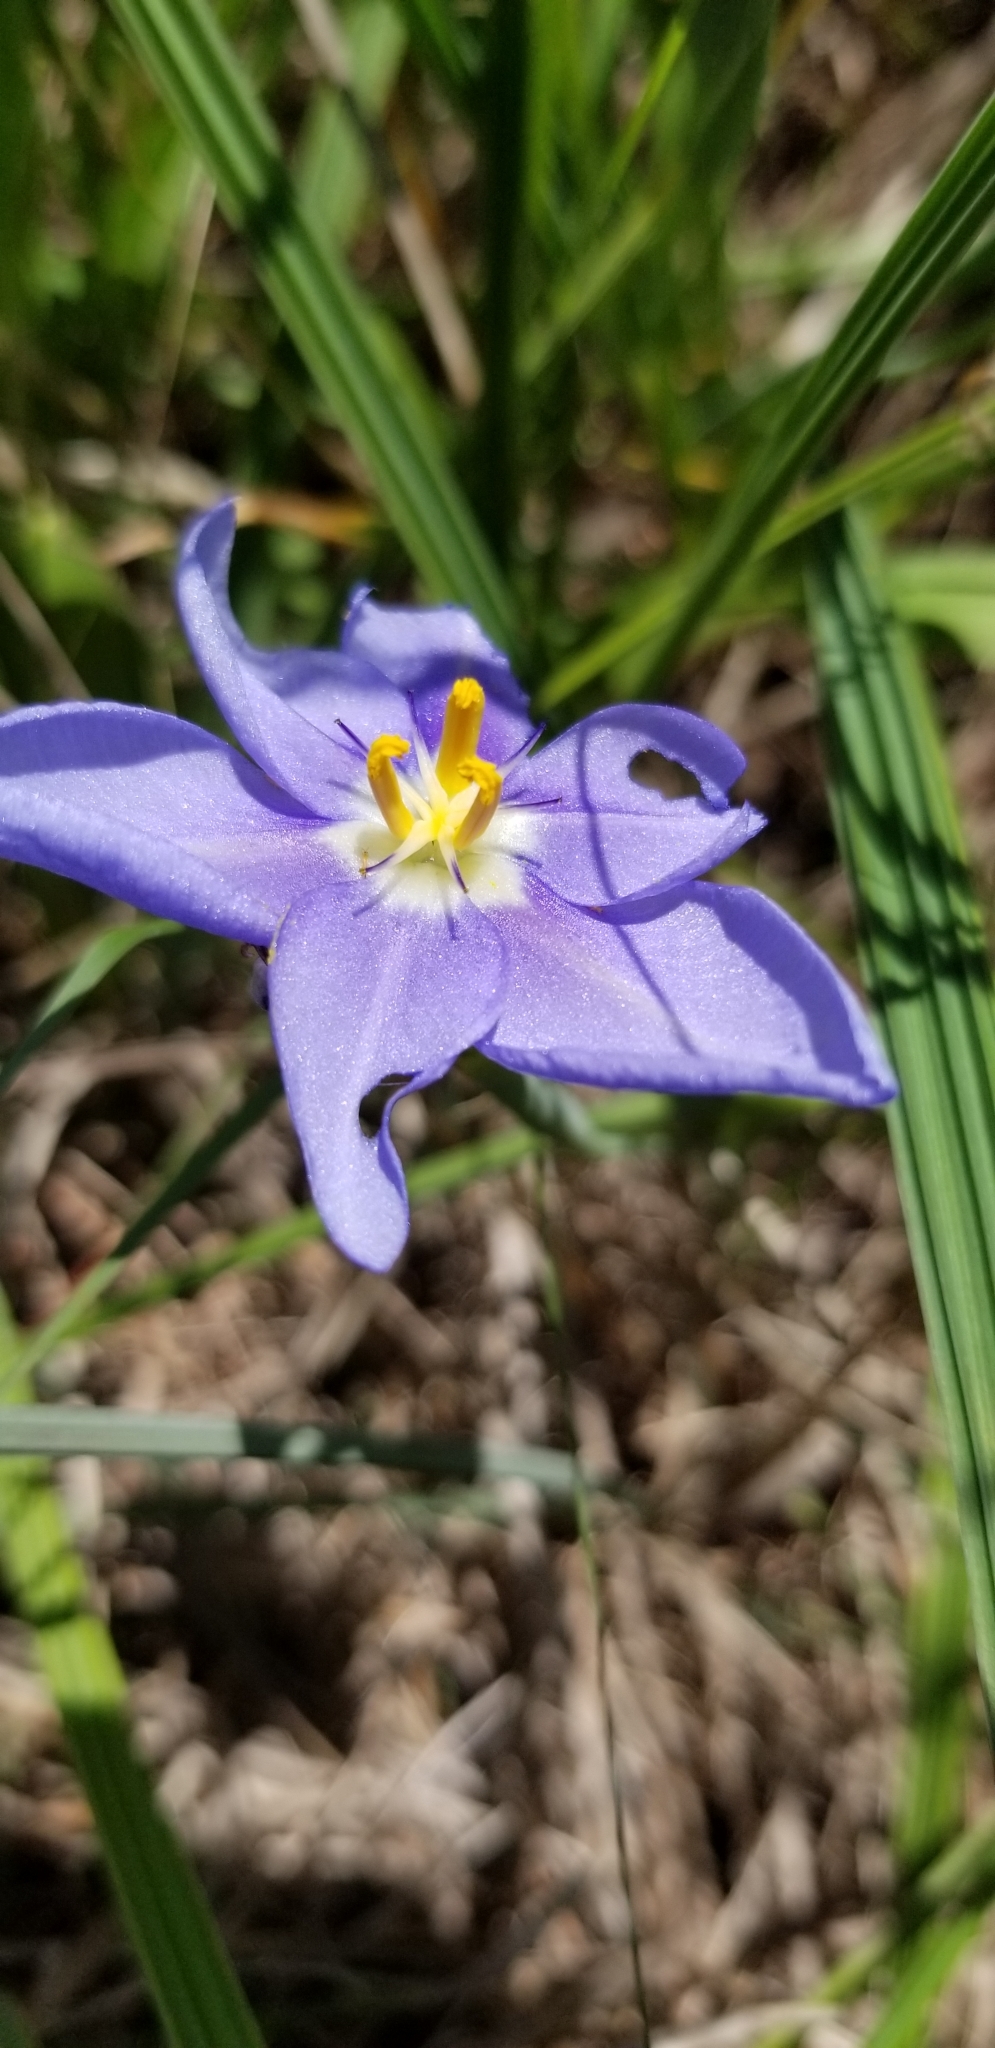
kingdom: Plantae
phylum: Tracheophyta
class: Liliopsida
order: Asparagales
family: Iridaceae
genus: Nemastylis
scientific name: Nemastylis geminiflora
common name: Prairie celestial
